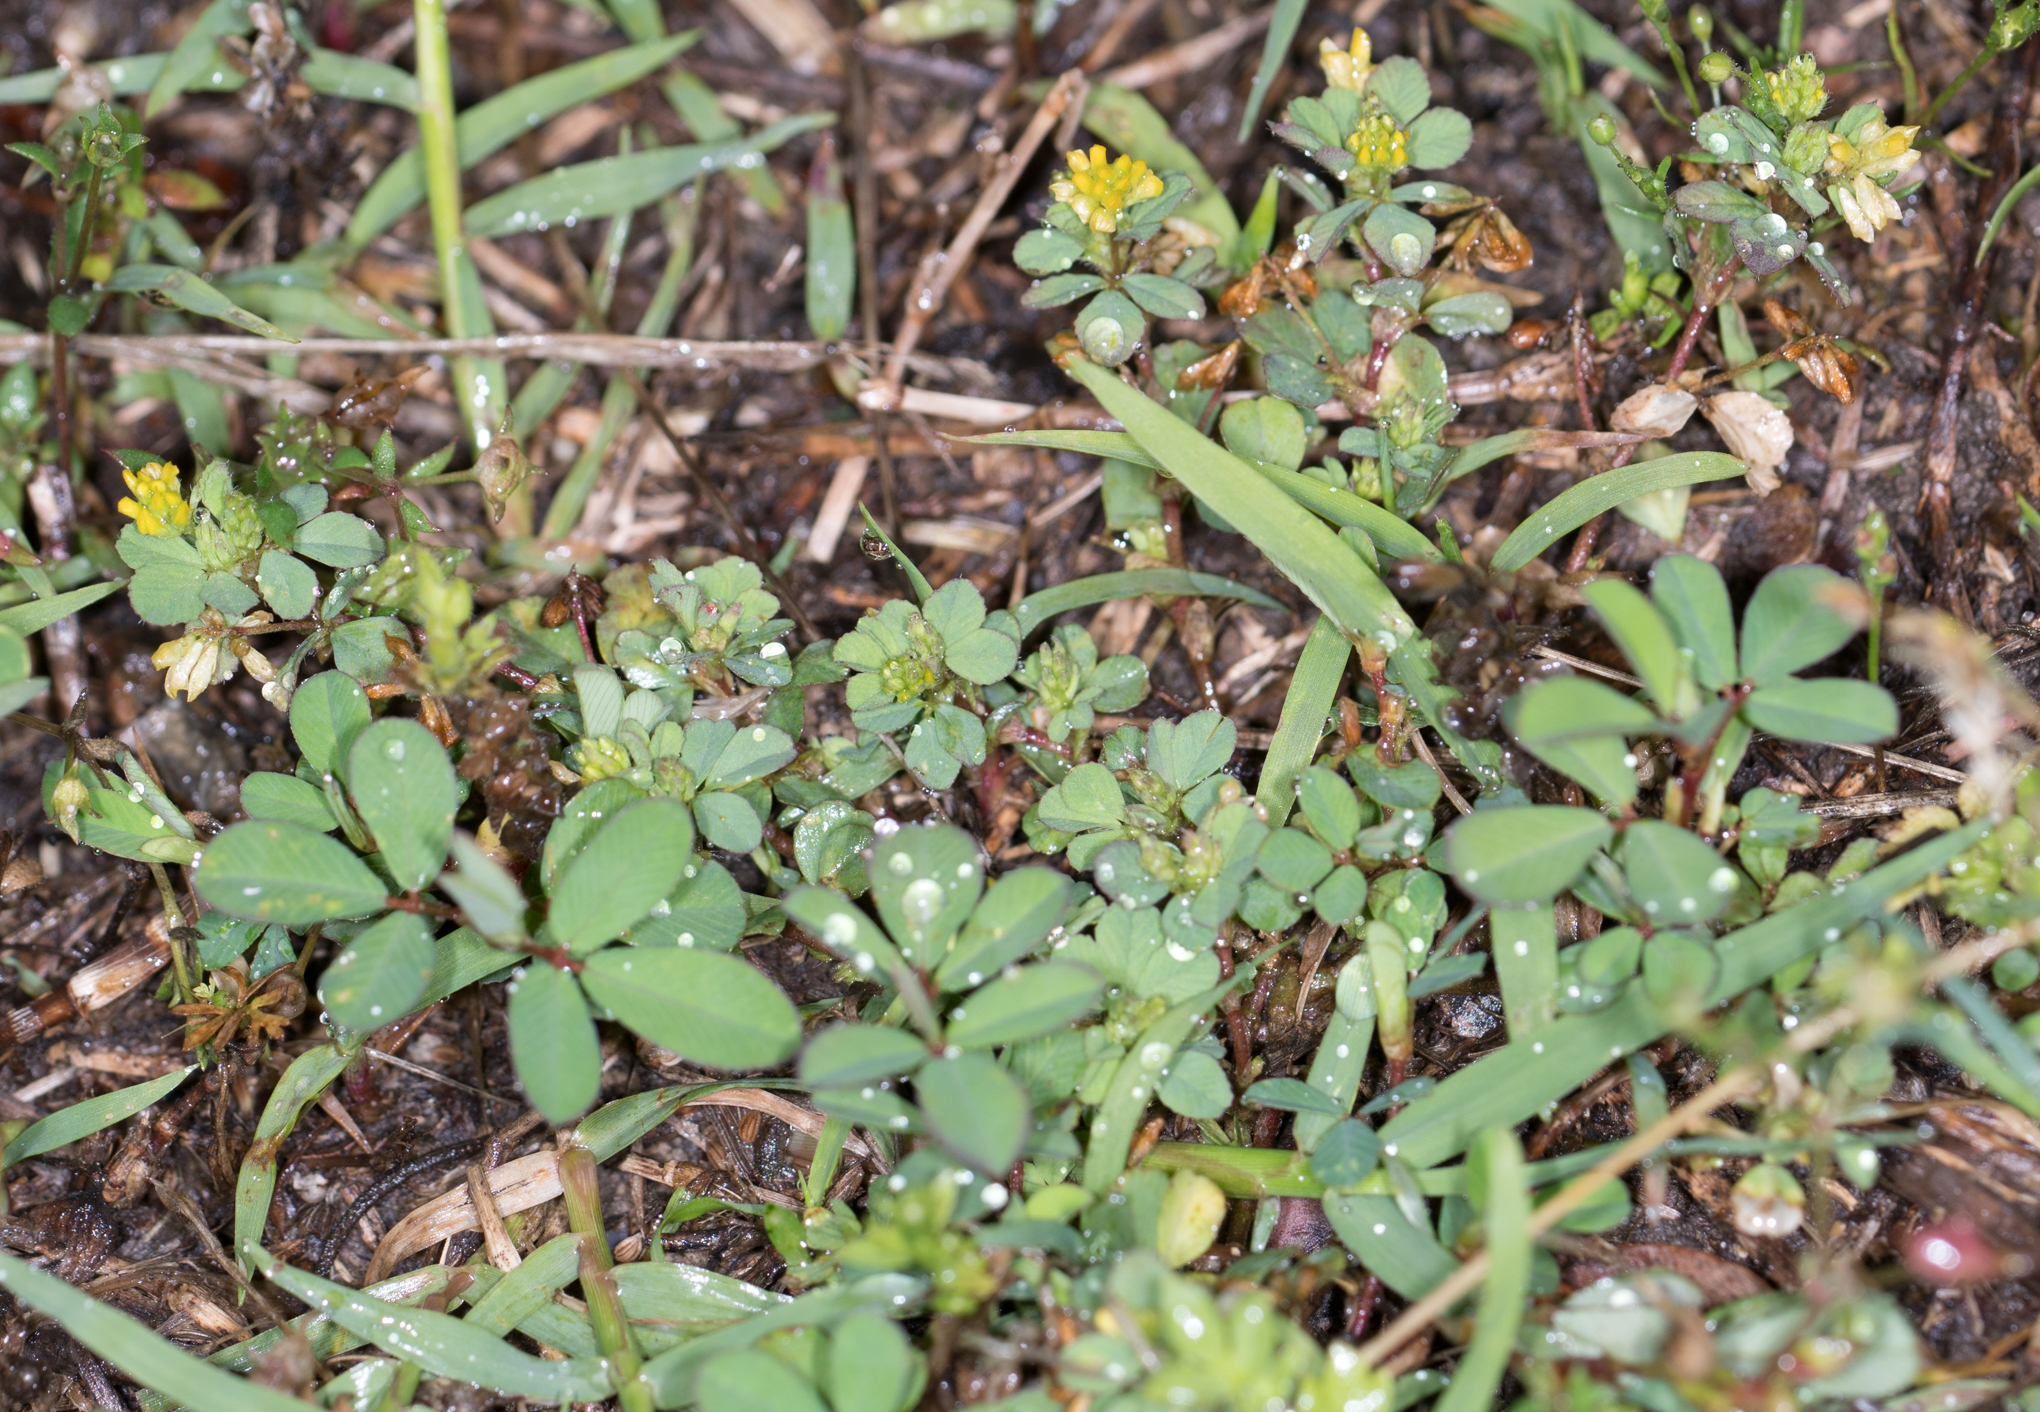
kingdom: Plantae
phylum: Tracheophyta
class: Magnoliopsida
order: Fabales
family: Fabaceae
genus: Trifolium
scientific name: Trifolium dubium
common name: Suckling clover
